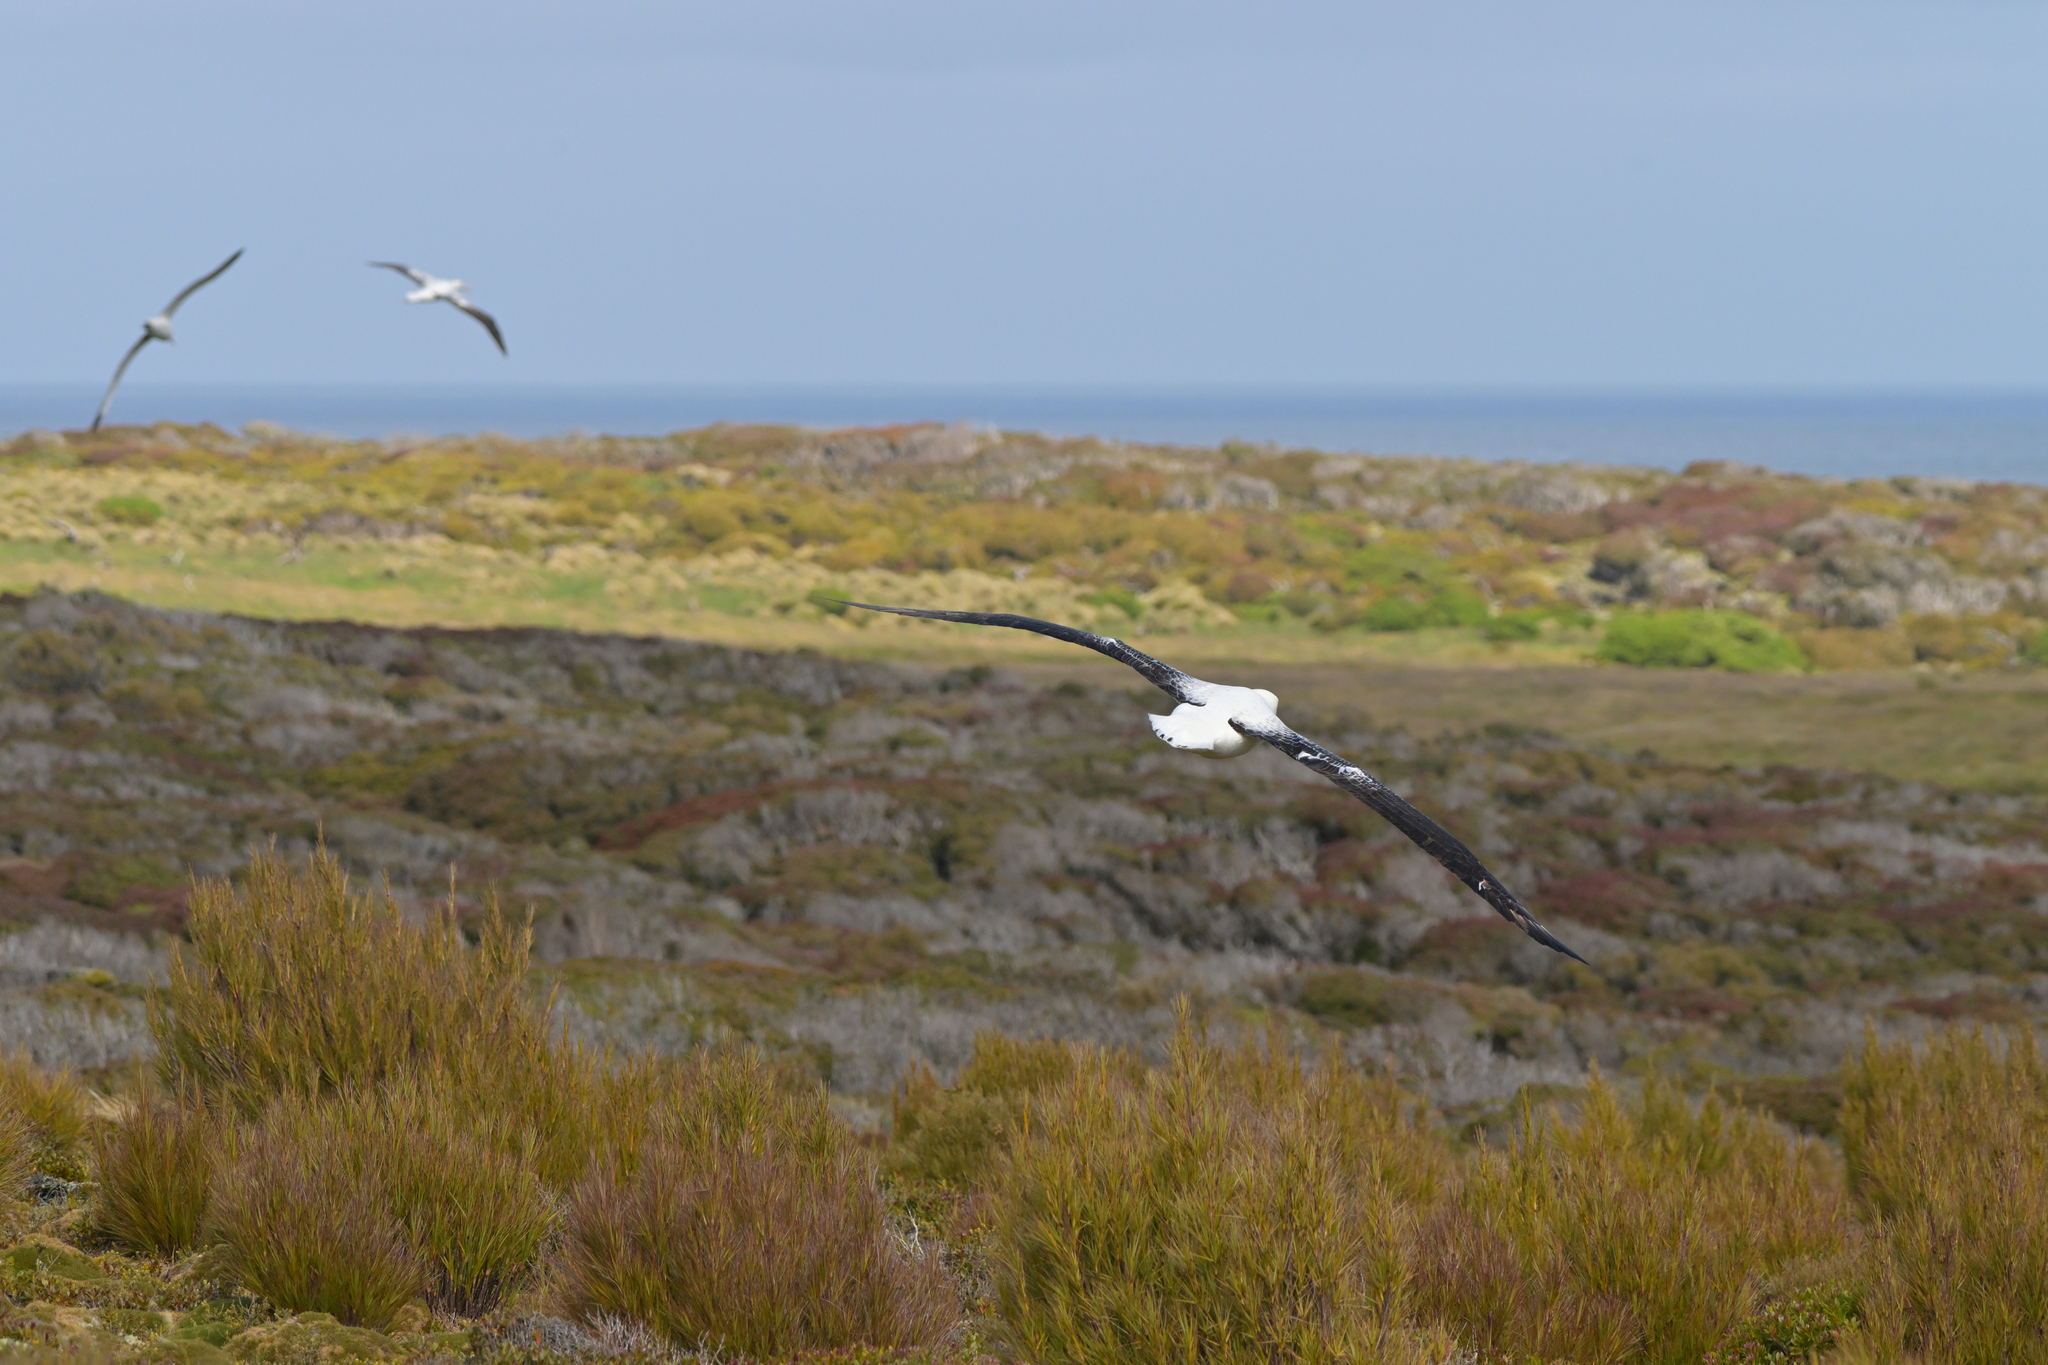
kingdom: Animalia
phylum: Chordata
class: Aves
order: Procellariiformes
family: Diomedeidae
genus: Diomedea
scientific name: Diomedea epomophora
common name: Southern royal albatross
